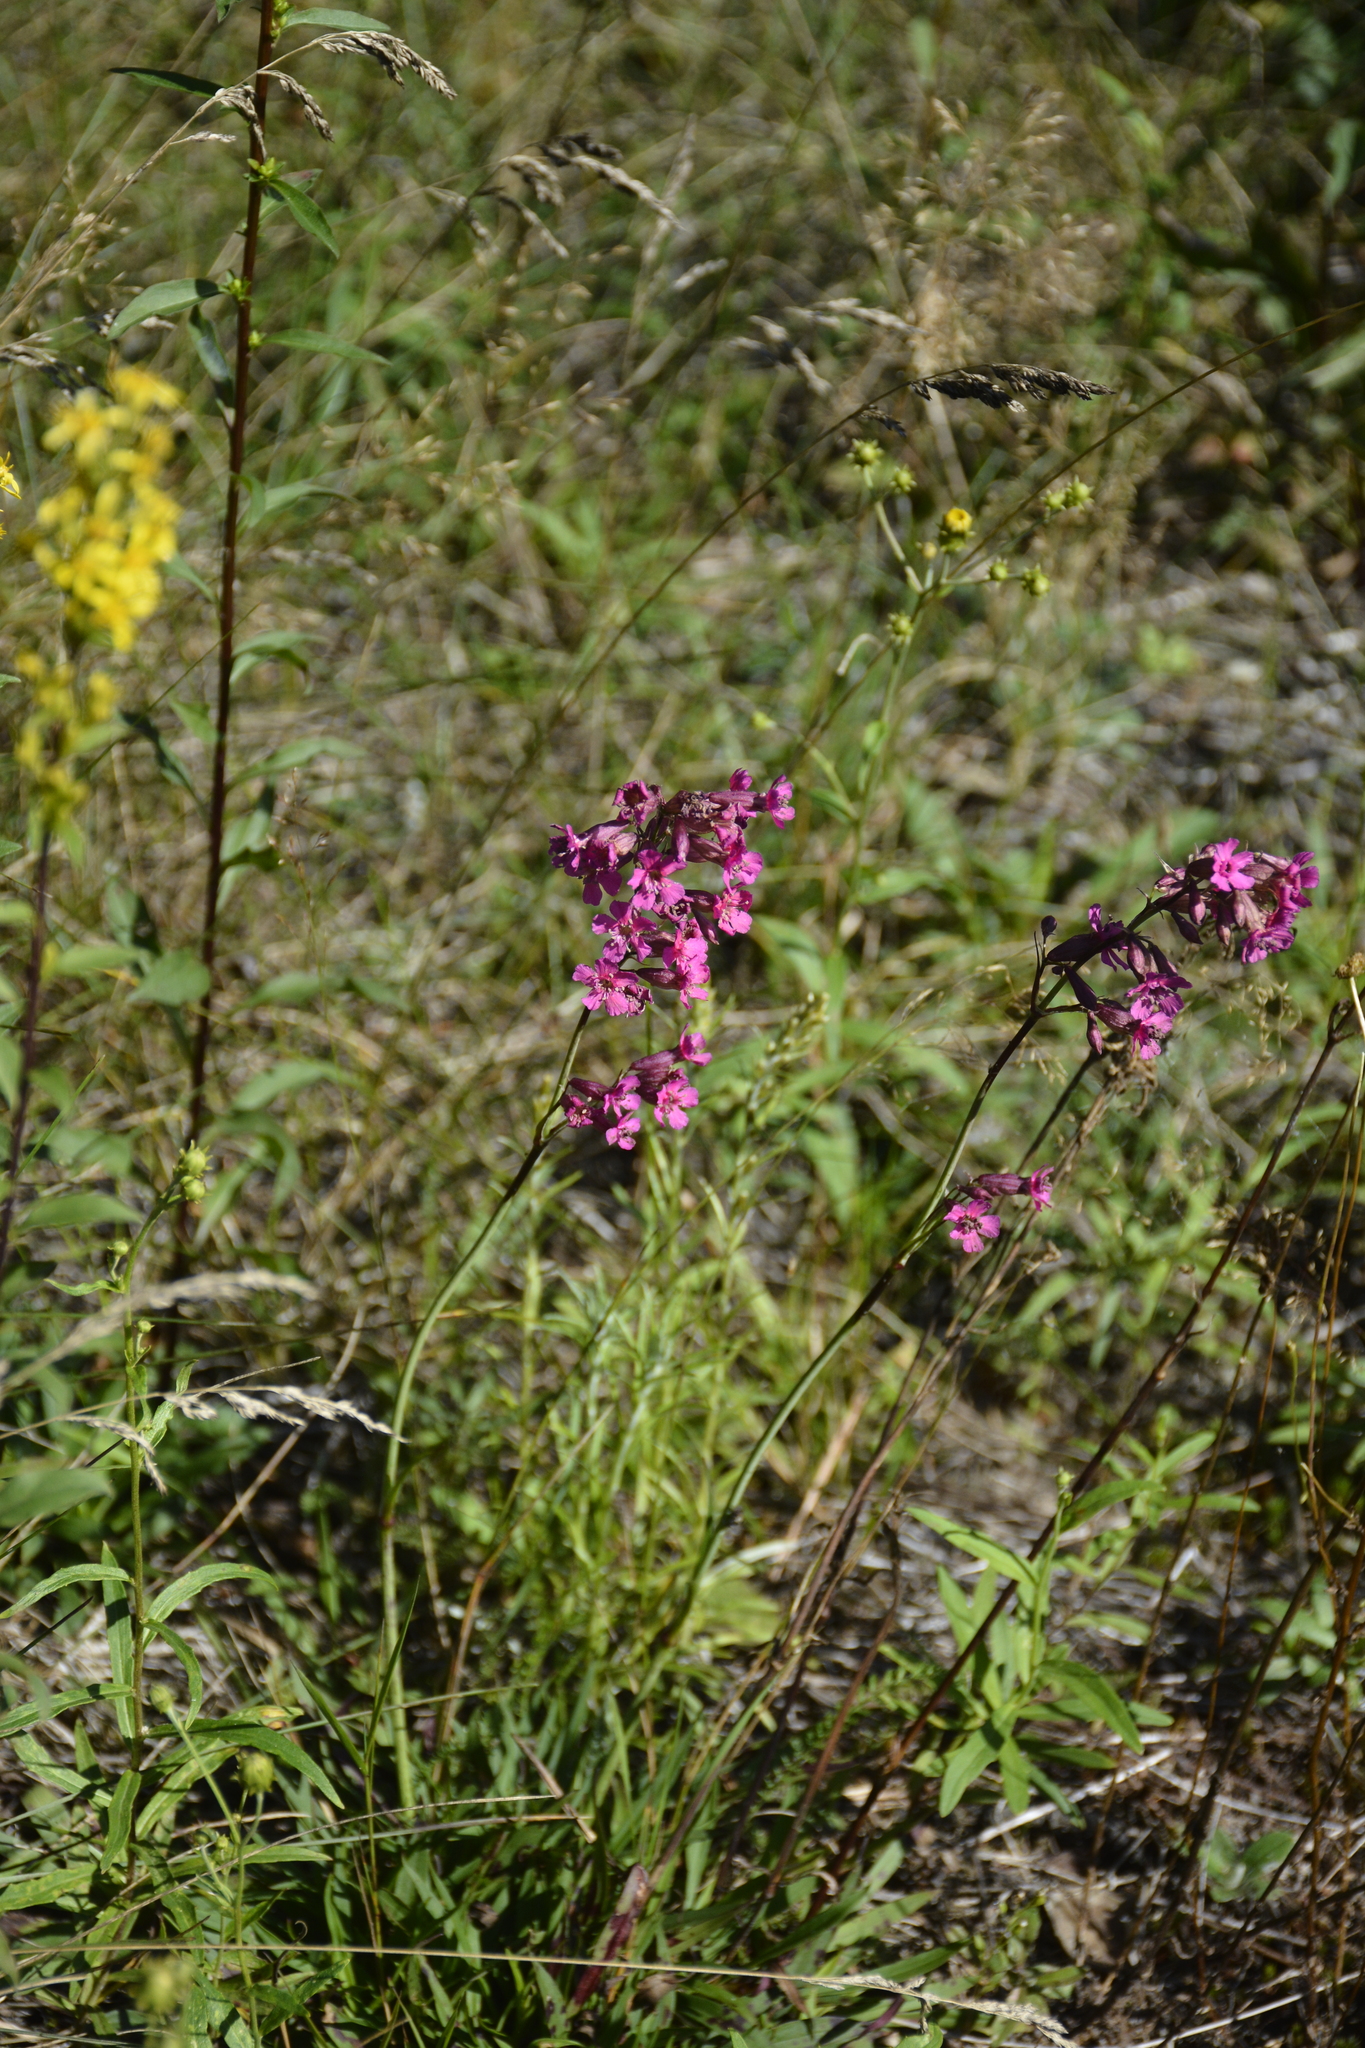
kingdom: Plantae
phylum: Tracheophyta
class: Magnoliopsida
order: Caryophyllales
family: Caryophyllaceae
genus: Viscaria
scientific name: Viscaria vulgaris
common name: Clammy campion
